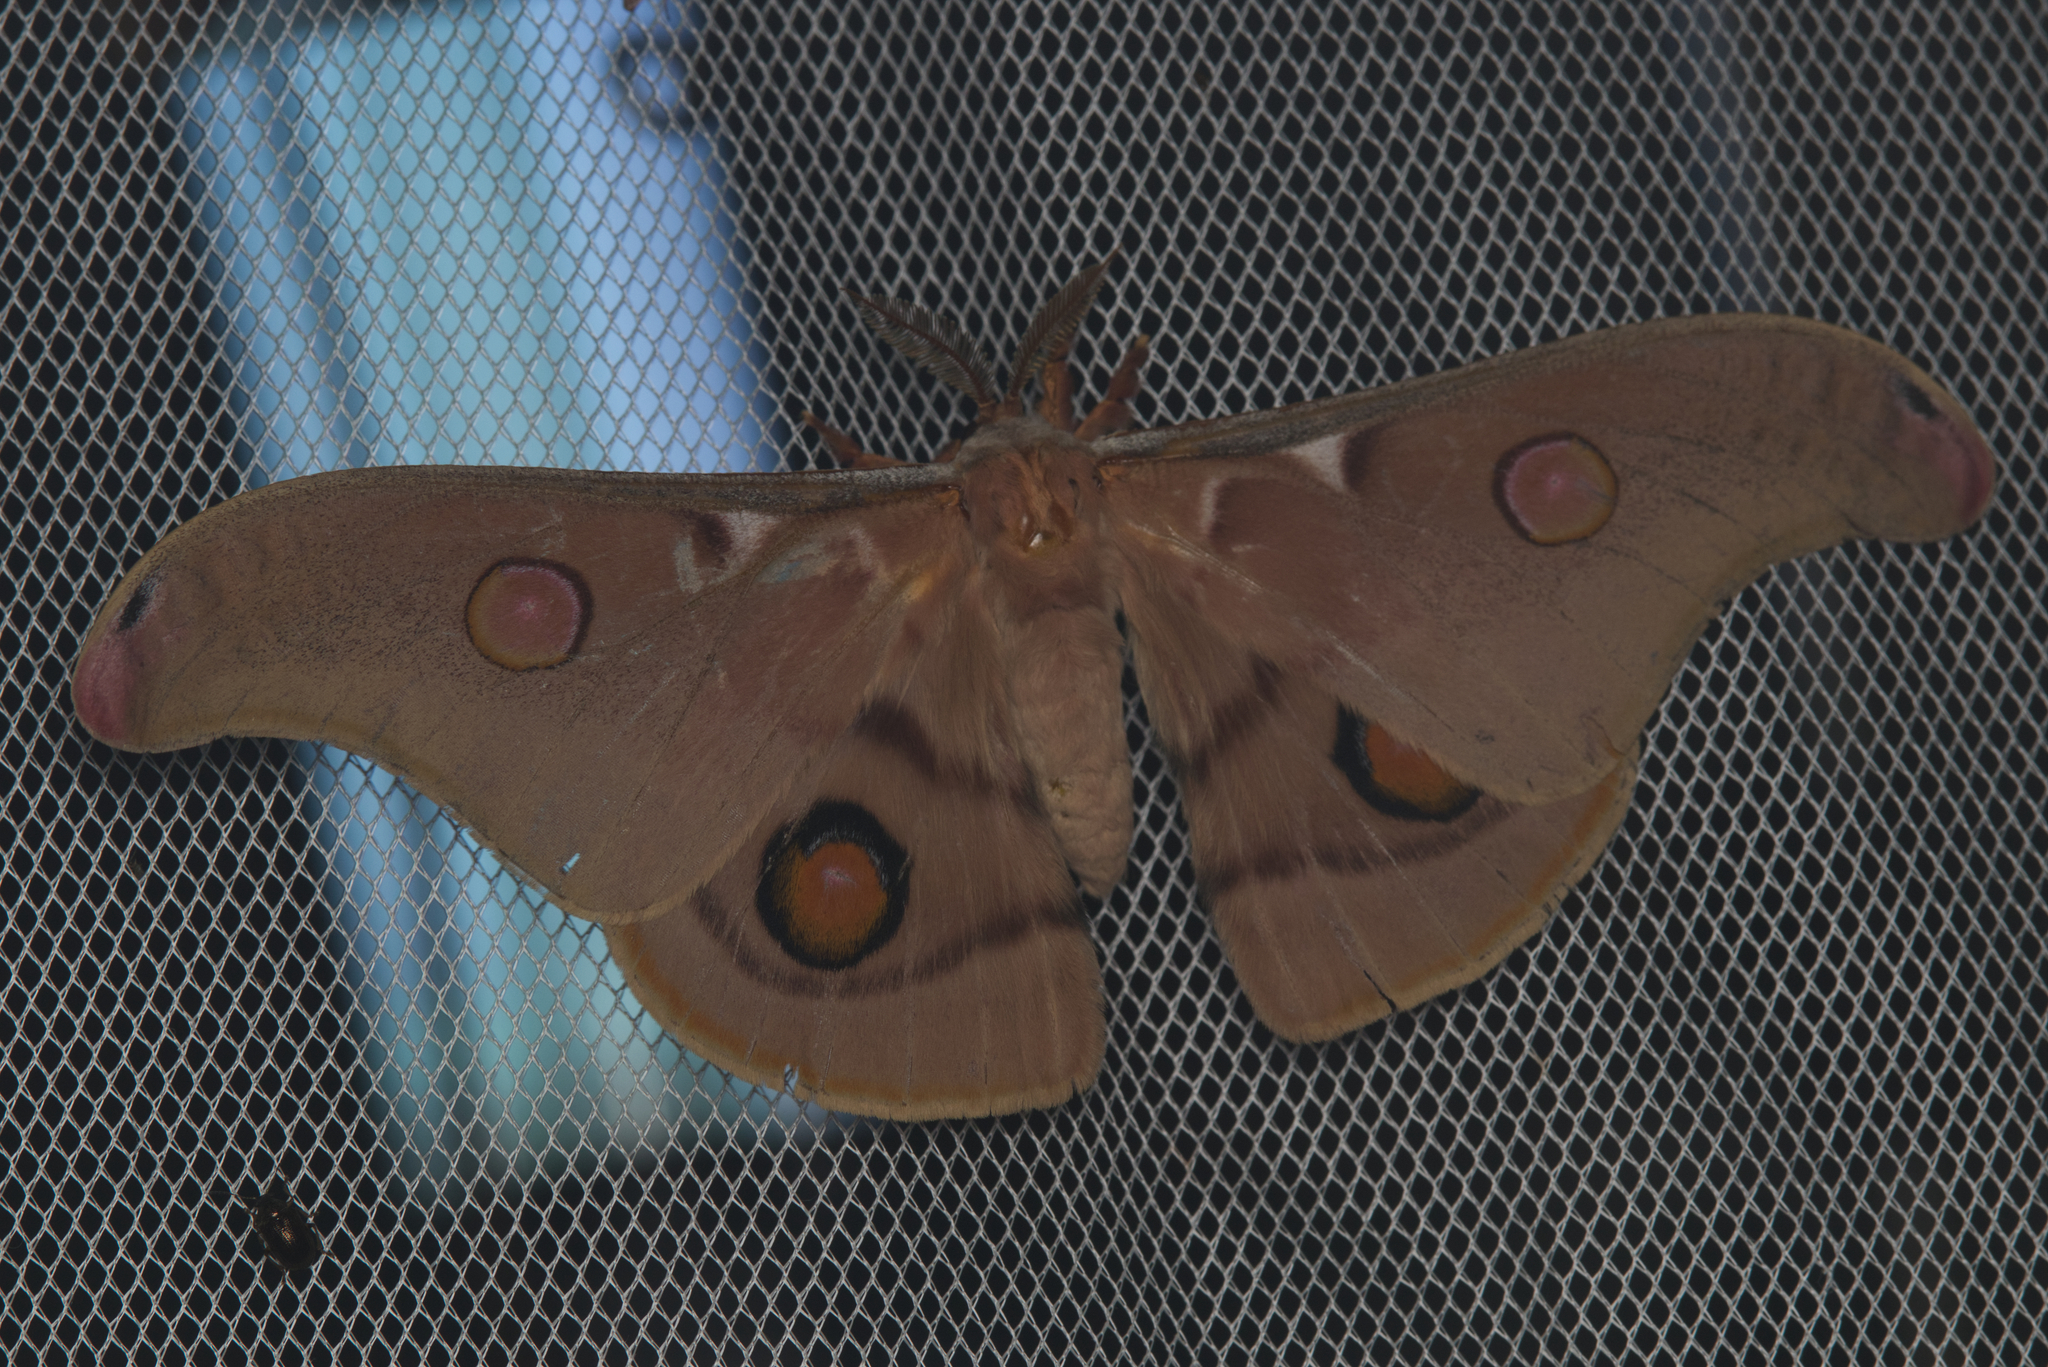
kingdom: Animalia
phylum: Arthropoda
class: Insecta
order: Lepidoptera
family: Saturniidae
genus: Opodiphthera
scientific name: Opodiphthera
